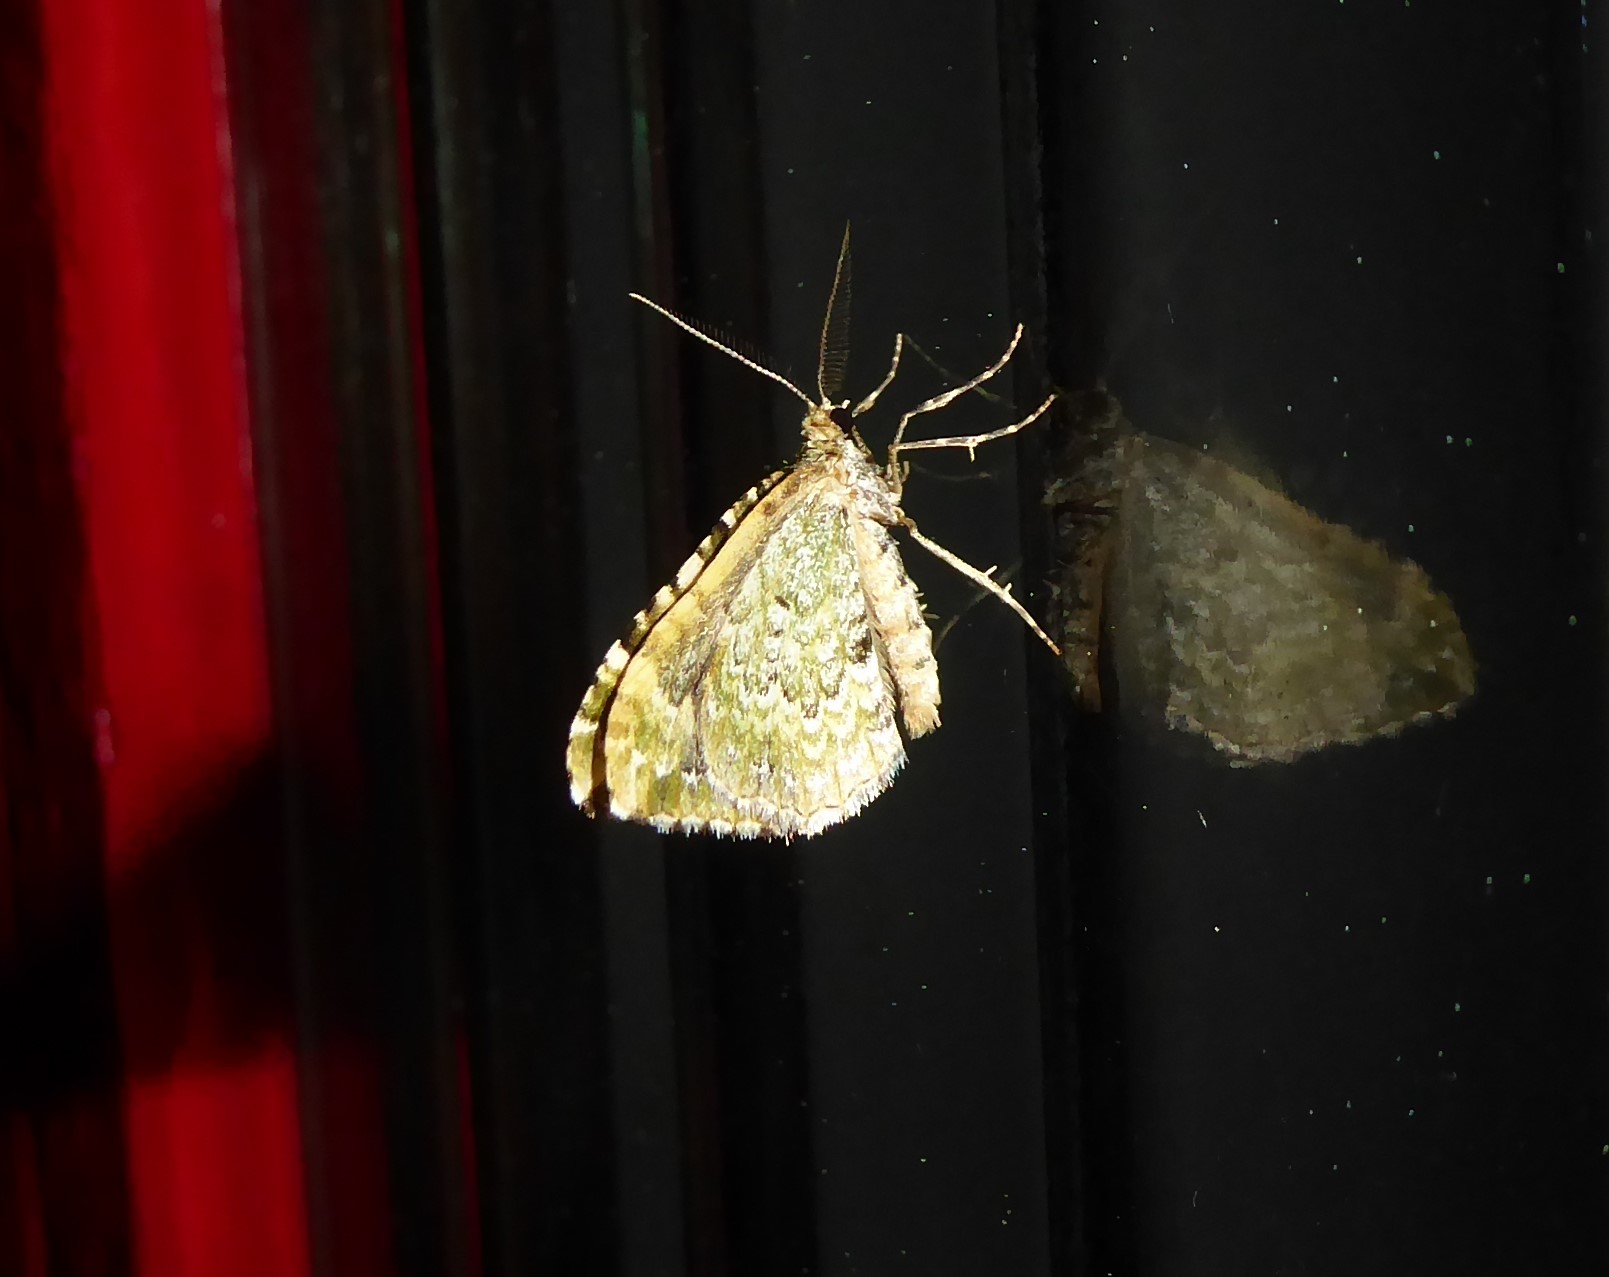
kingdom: Animalia
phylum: Arthropoda
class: Insecta
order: Lepidoptera
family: Geometridae
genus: Asaphodes
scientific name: Asaphodes beata
